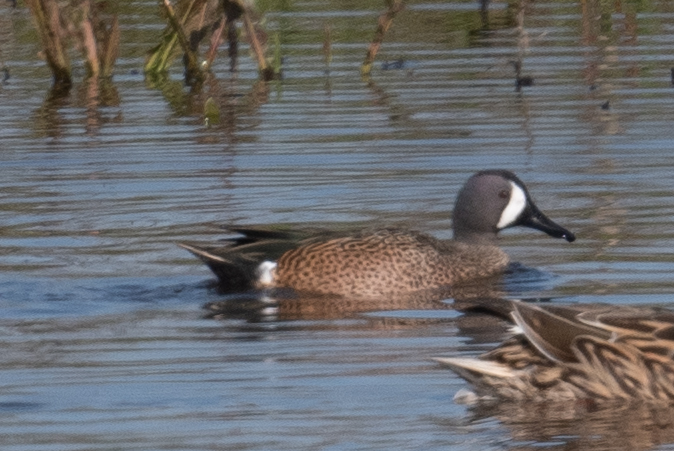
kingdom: Animalia
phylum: Chordata
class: Aves
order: Anseriformes
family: Anatidae
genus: Spatula
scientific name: Spatula discors
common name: Blue-winged teal
